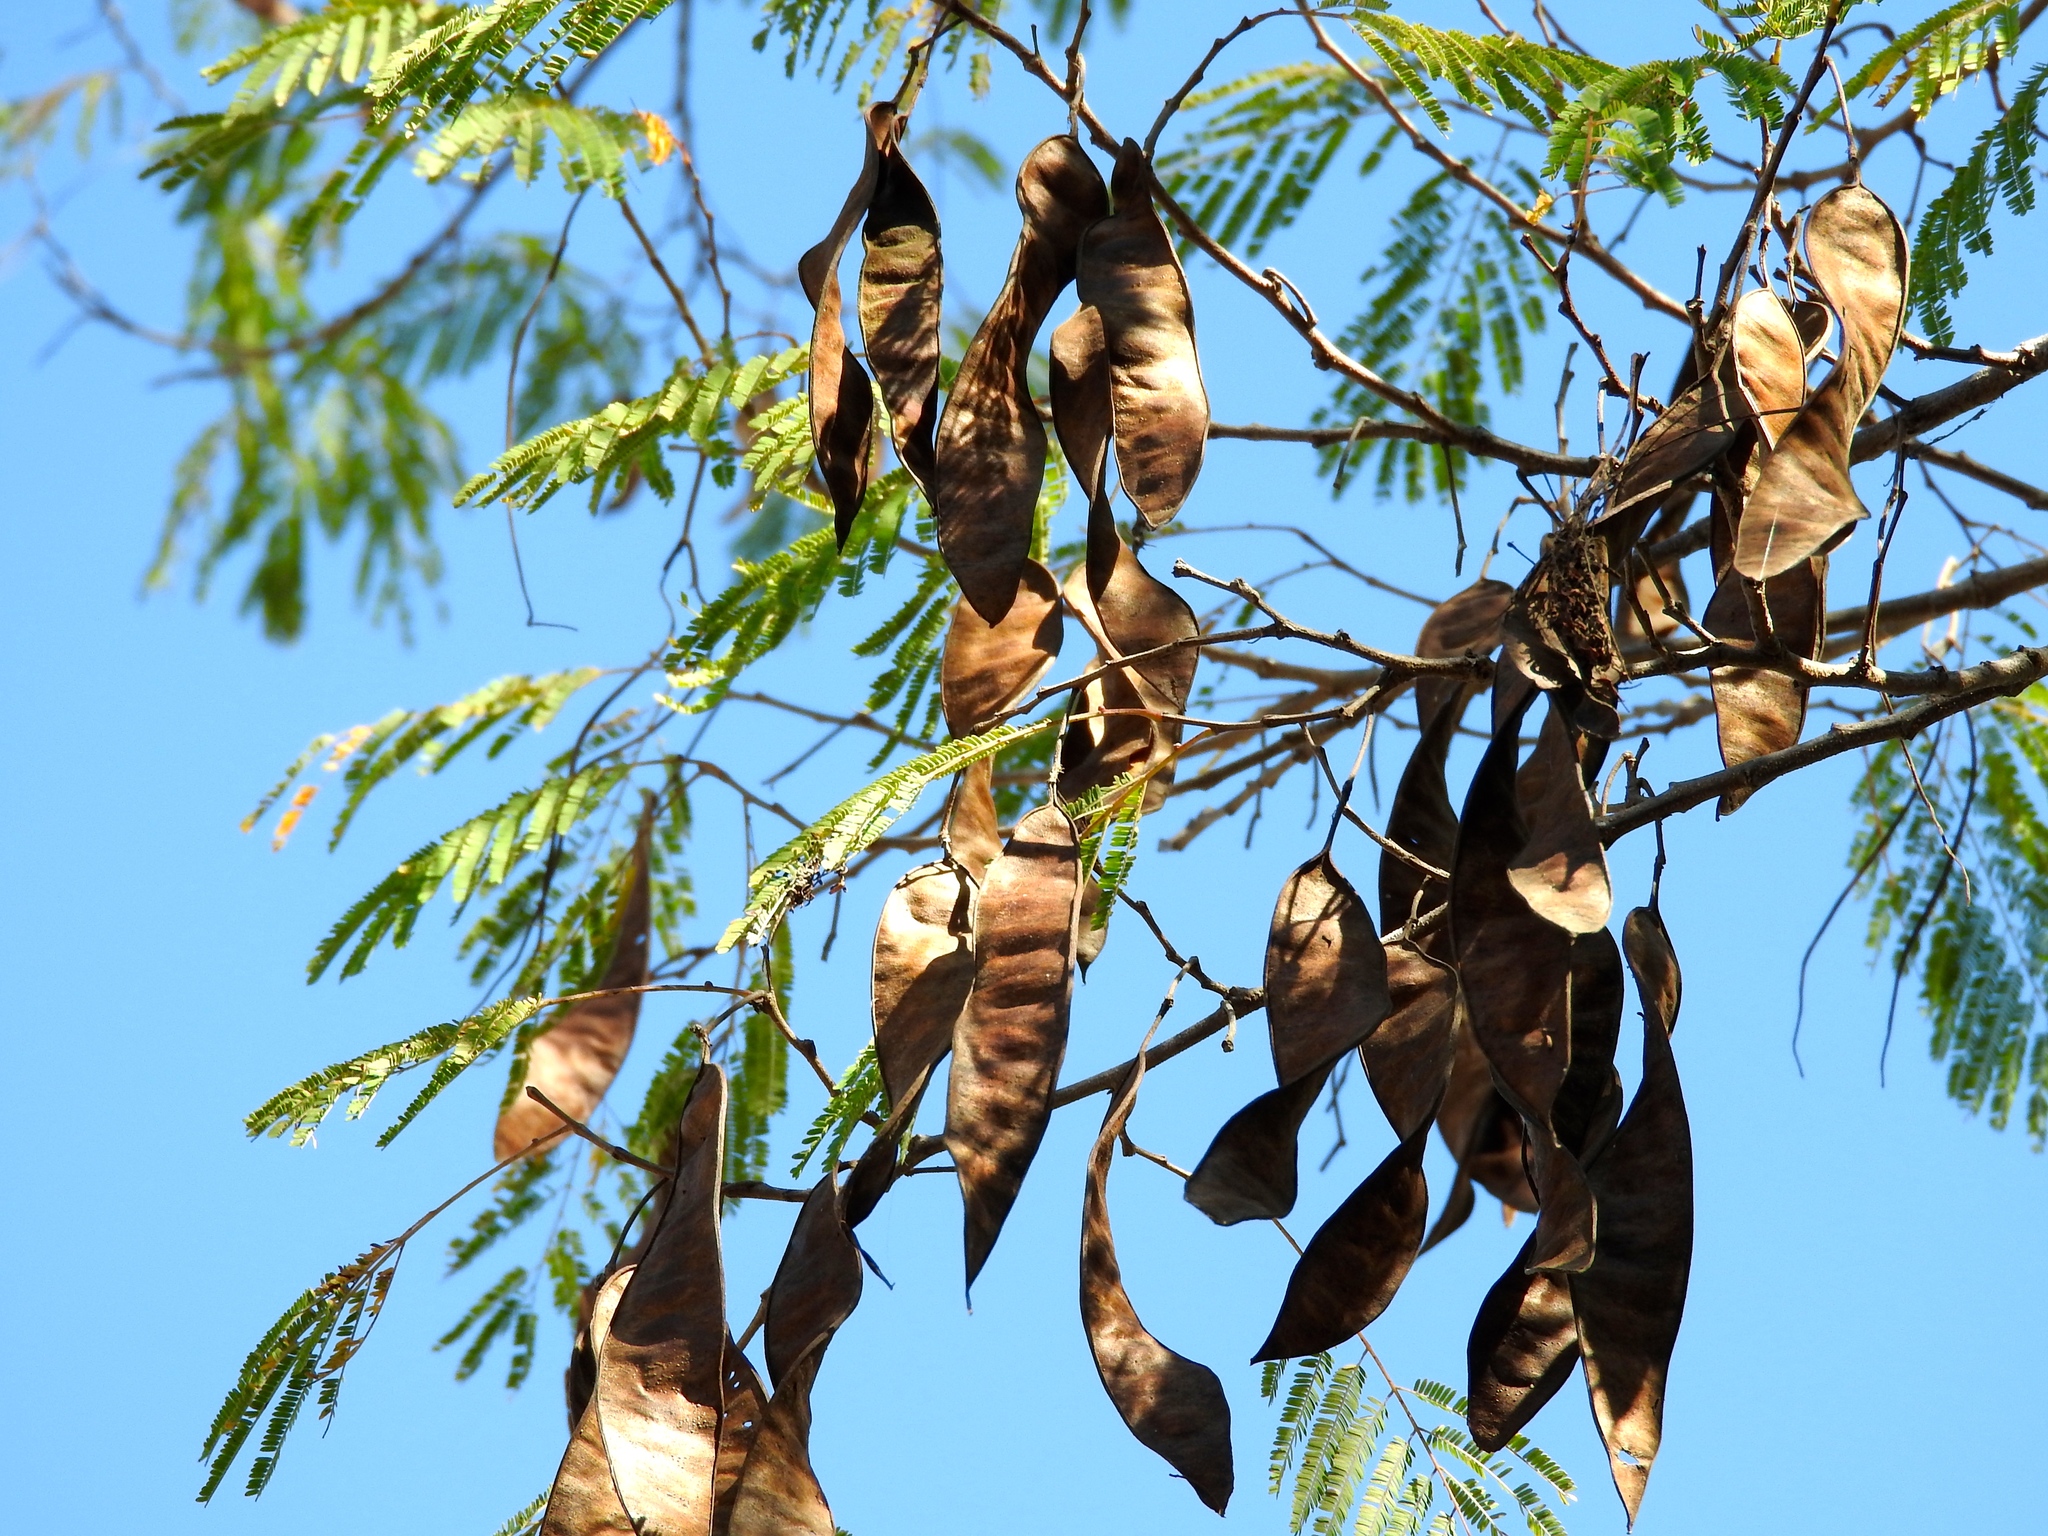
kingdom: Plantae
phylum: Tracheophyta
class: Magnoliopsida
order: Fabales
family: Fabaceae
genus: Lysiloma
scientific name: Lysiloma divaricatum
